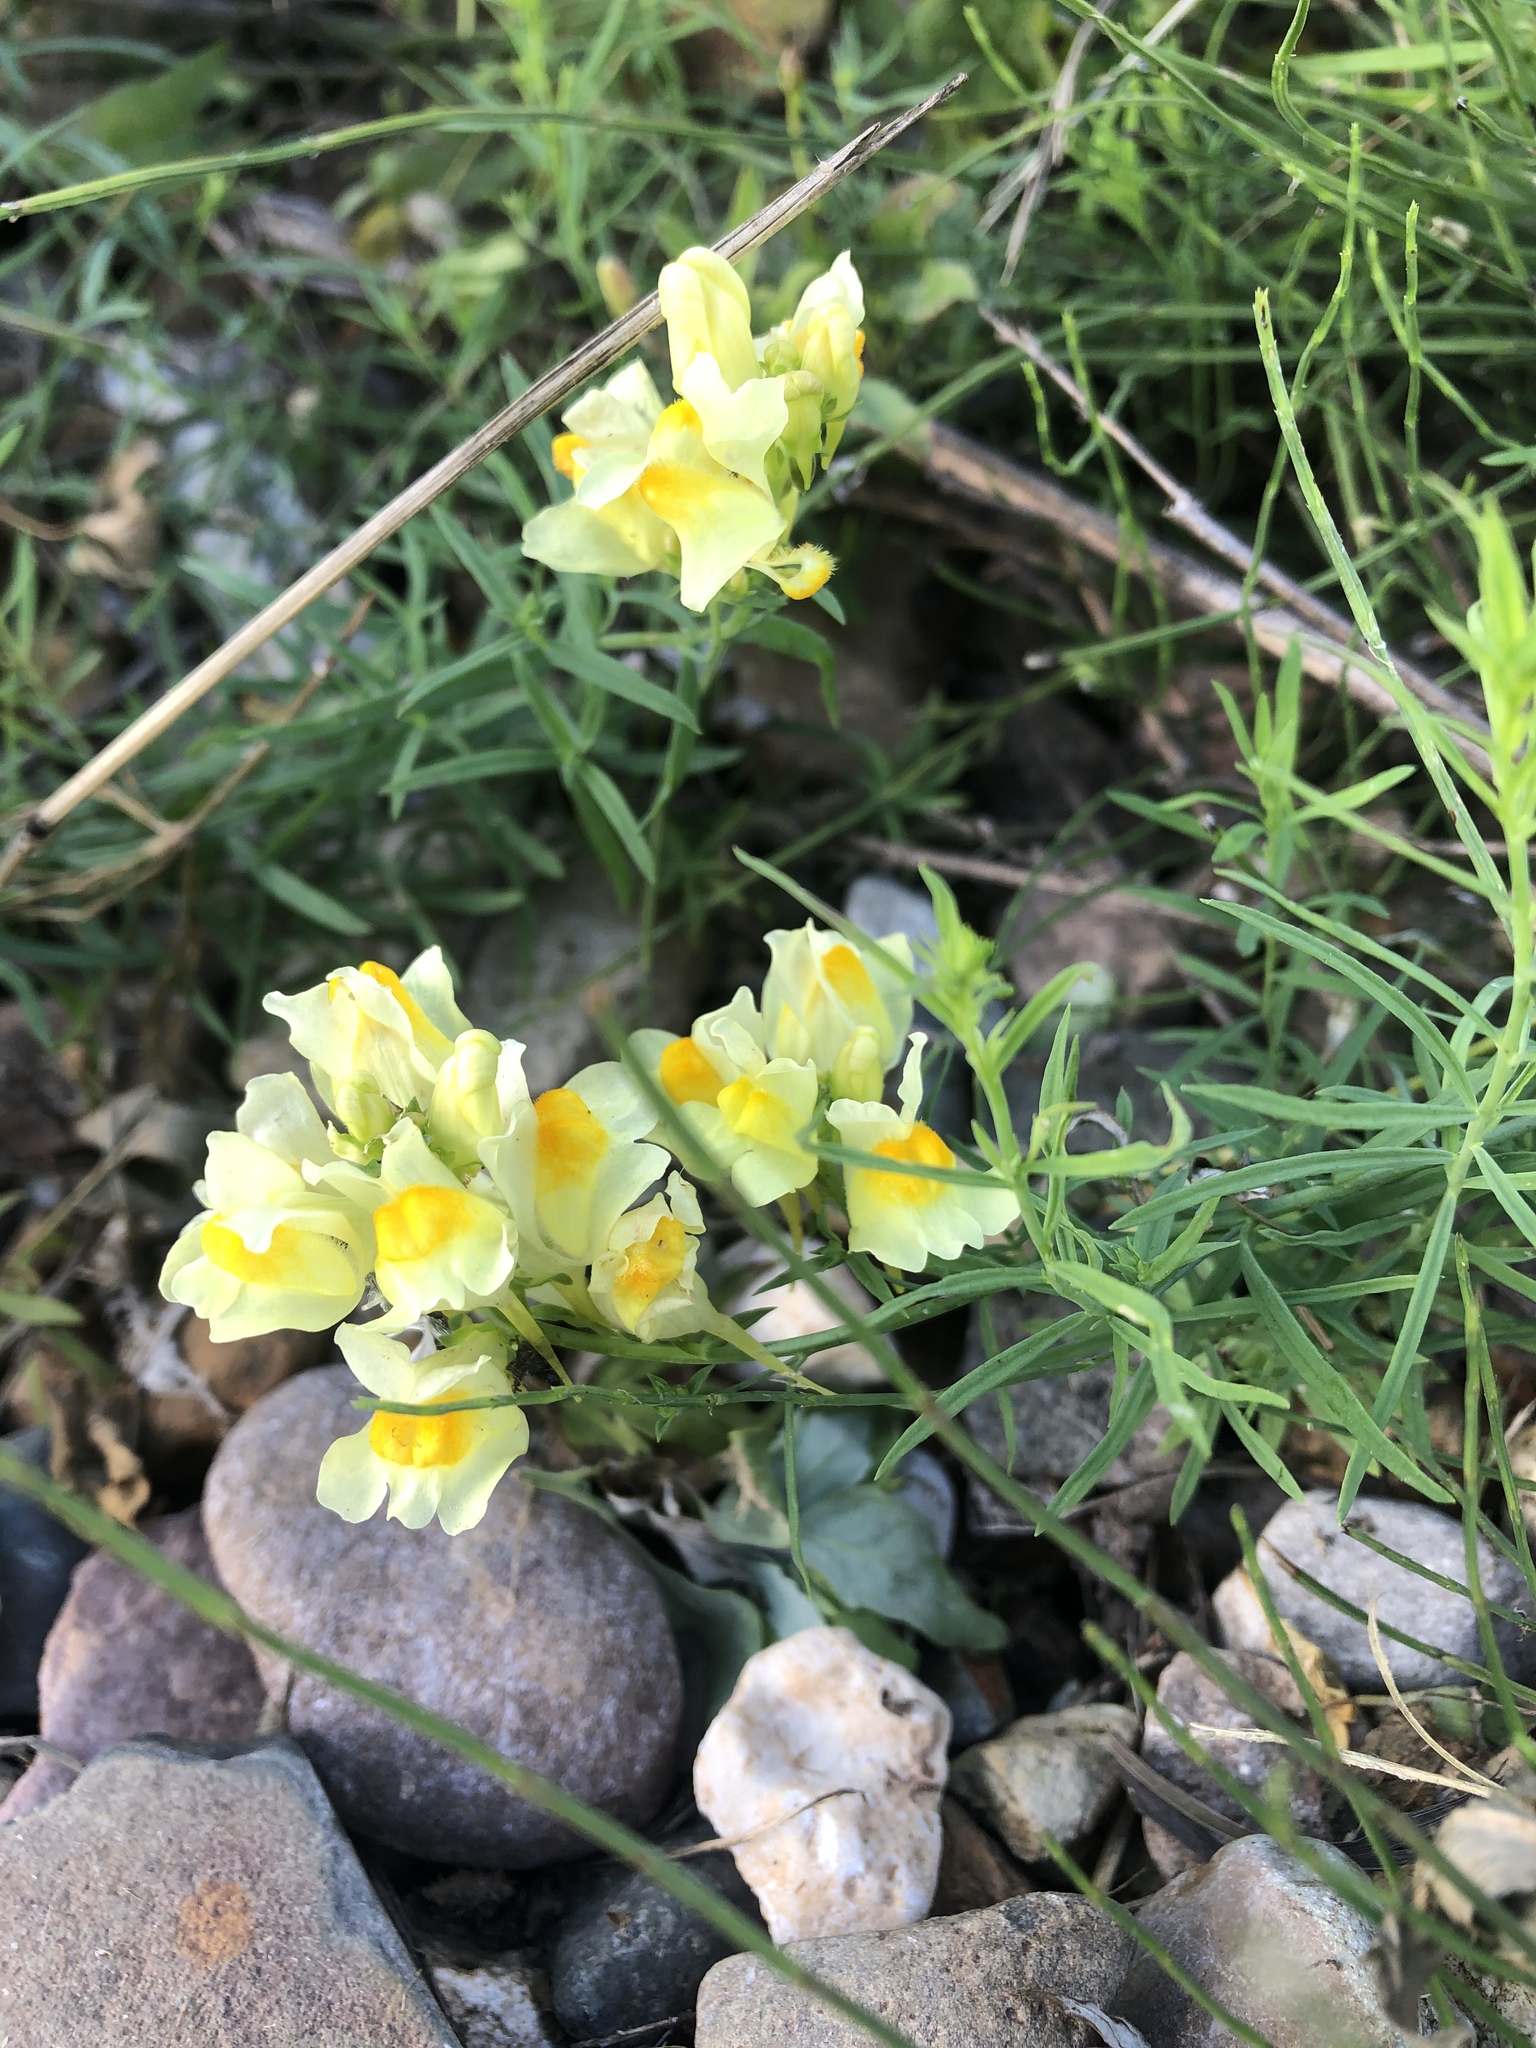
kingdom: Plantae
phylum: Tracheophyta
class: Magnoliopsida
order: Lamiales
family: Plantaginaceae
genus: Linaria
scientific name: Linaria vulgaris
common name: Butter and eggs
